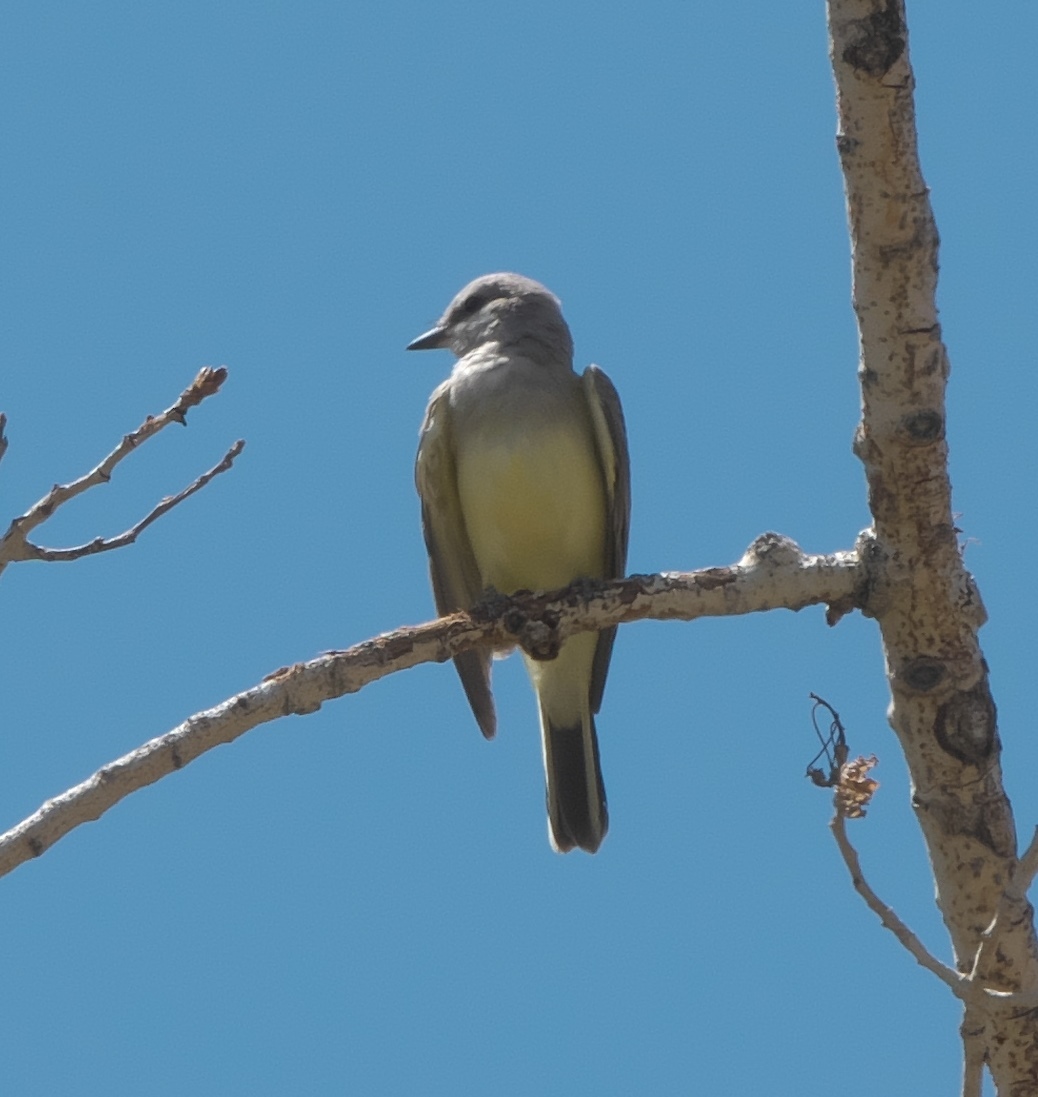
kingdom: Animalia
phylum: Chordata
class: Aves
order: Passeriformes
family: Tyrannidae
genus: Tyrannus
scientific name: Tyrannus verticalis
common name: Western kingbird
